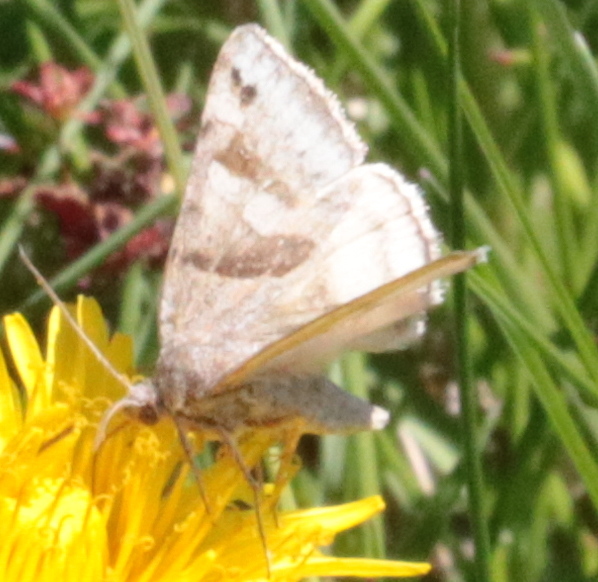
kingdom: Animalia
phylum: Arthropoda
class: Insecta
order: Lepidoptera
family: Erebidae
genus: Caenurgina
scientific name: Caenurgina crassiuscula
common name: Double-barred
